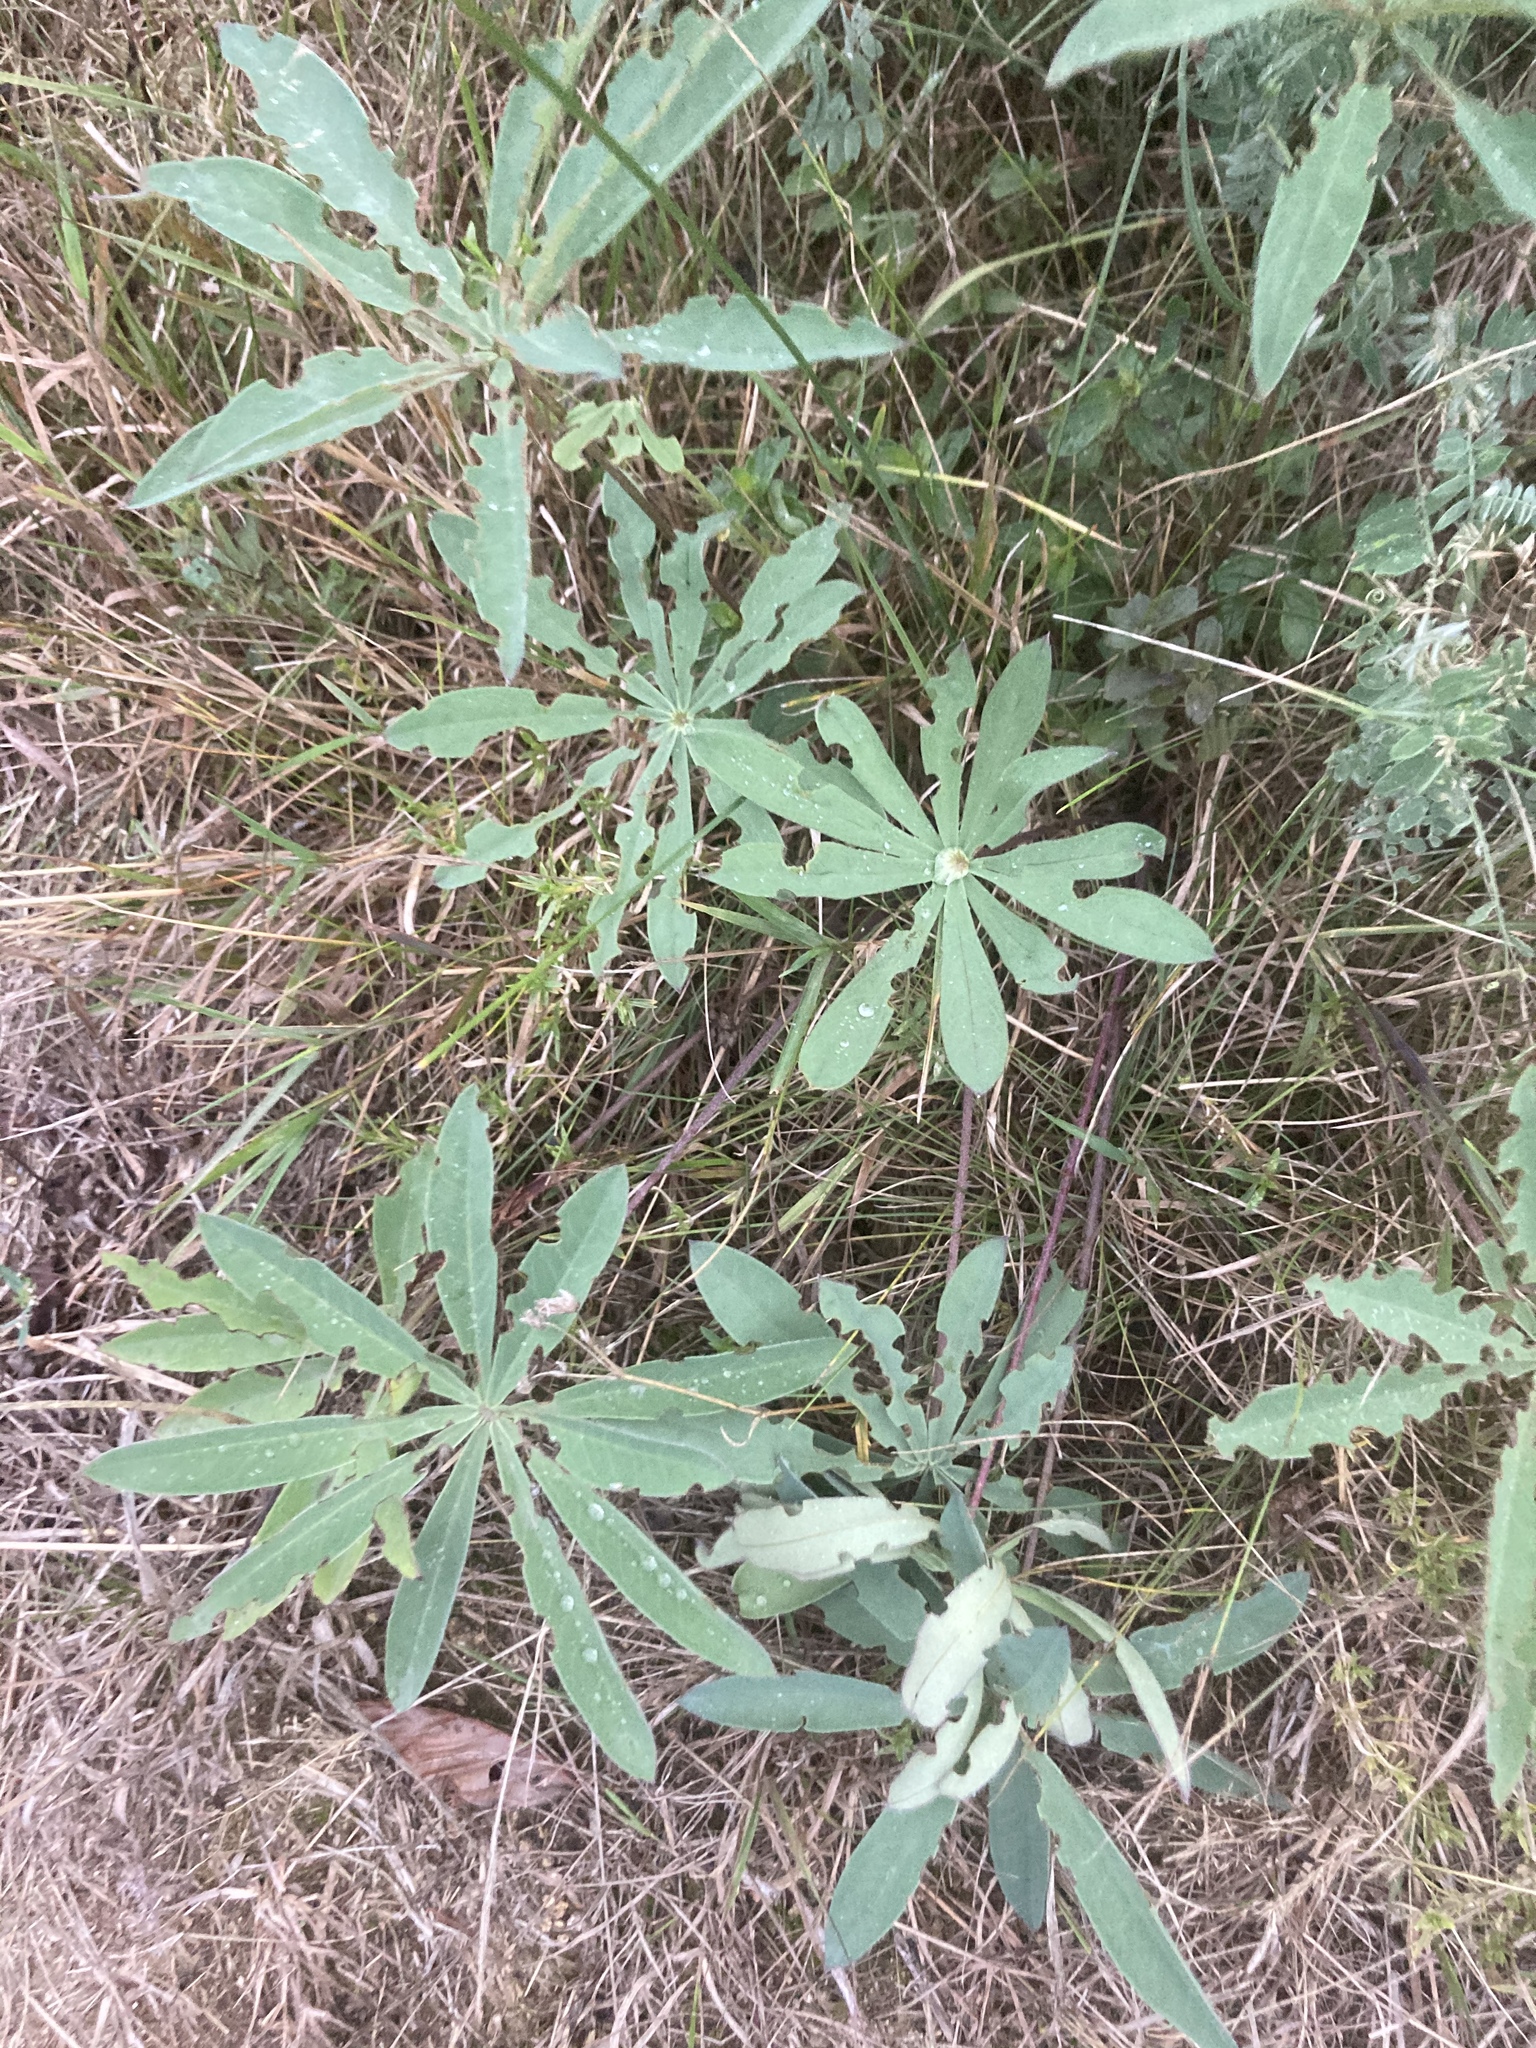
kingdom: Plantae
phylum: Tracheophyta
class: Magnoliopsida
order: Fabales
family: Fabaceae
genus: Lupinus
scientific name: Lupinus polyphyllus
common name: Garden lupin
